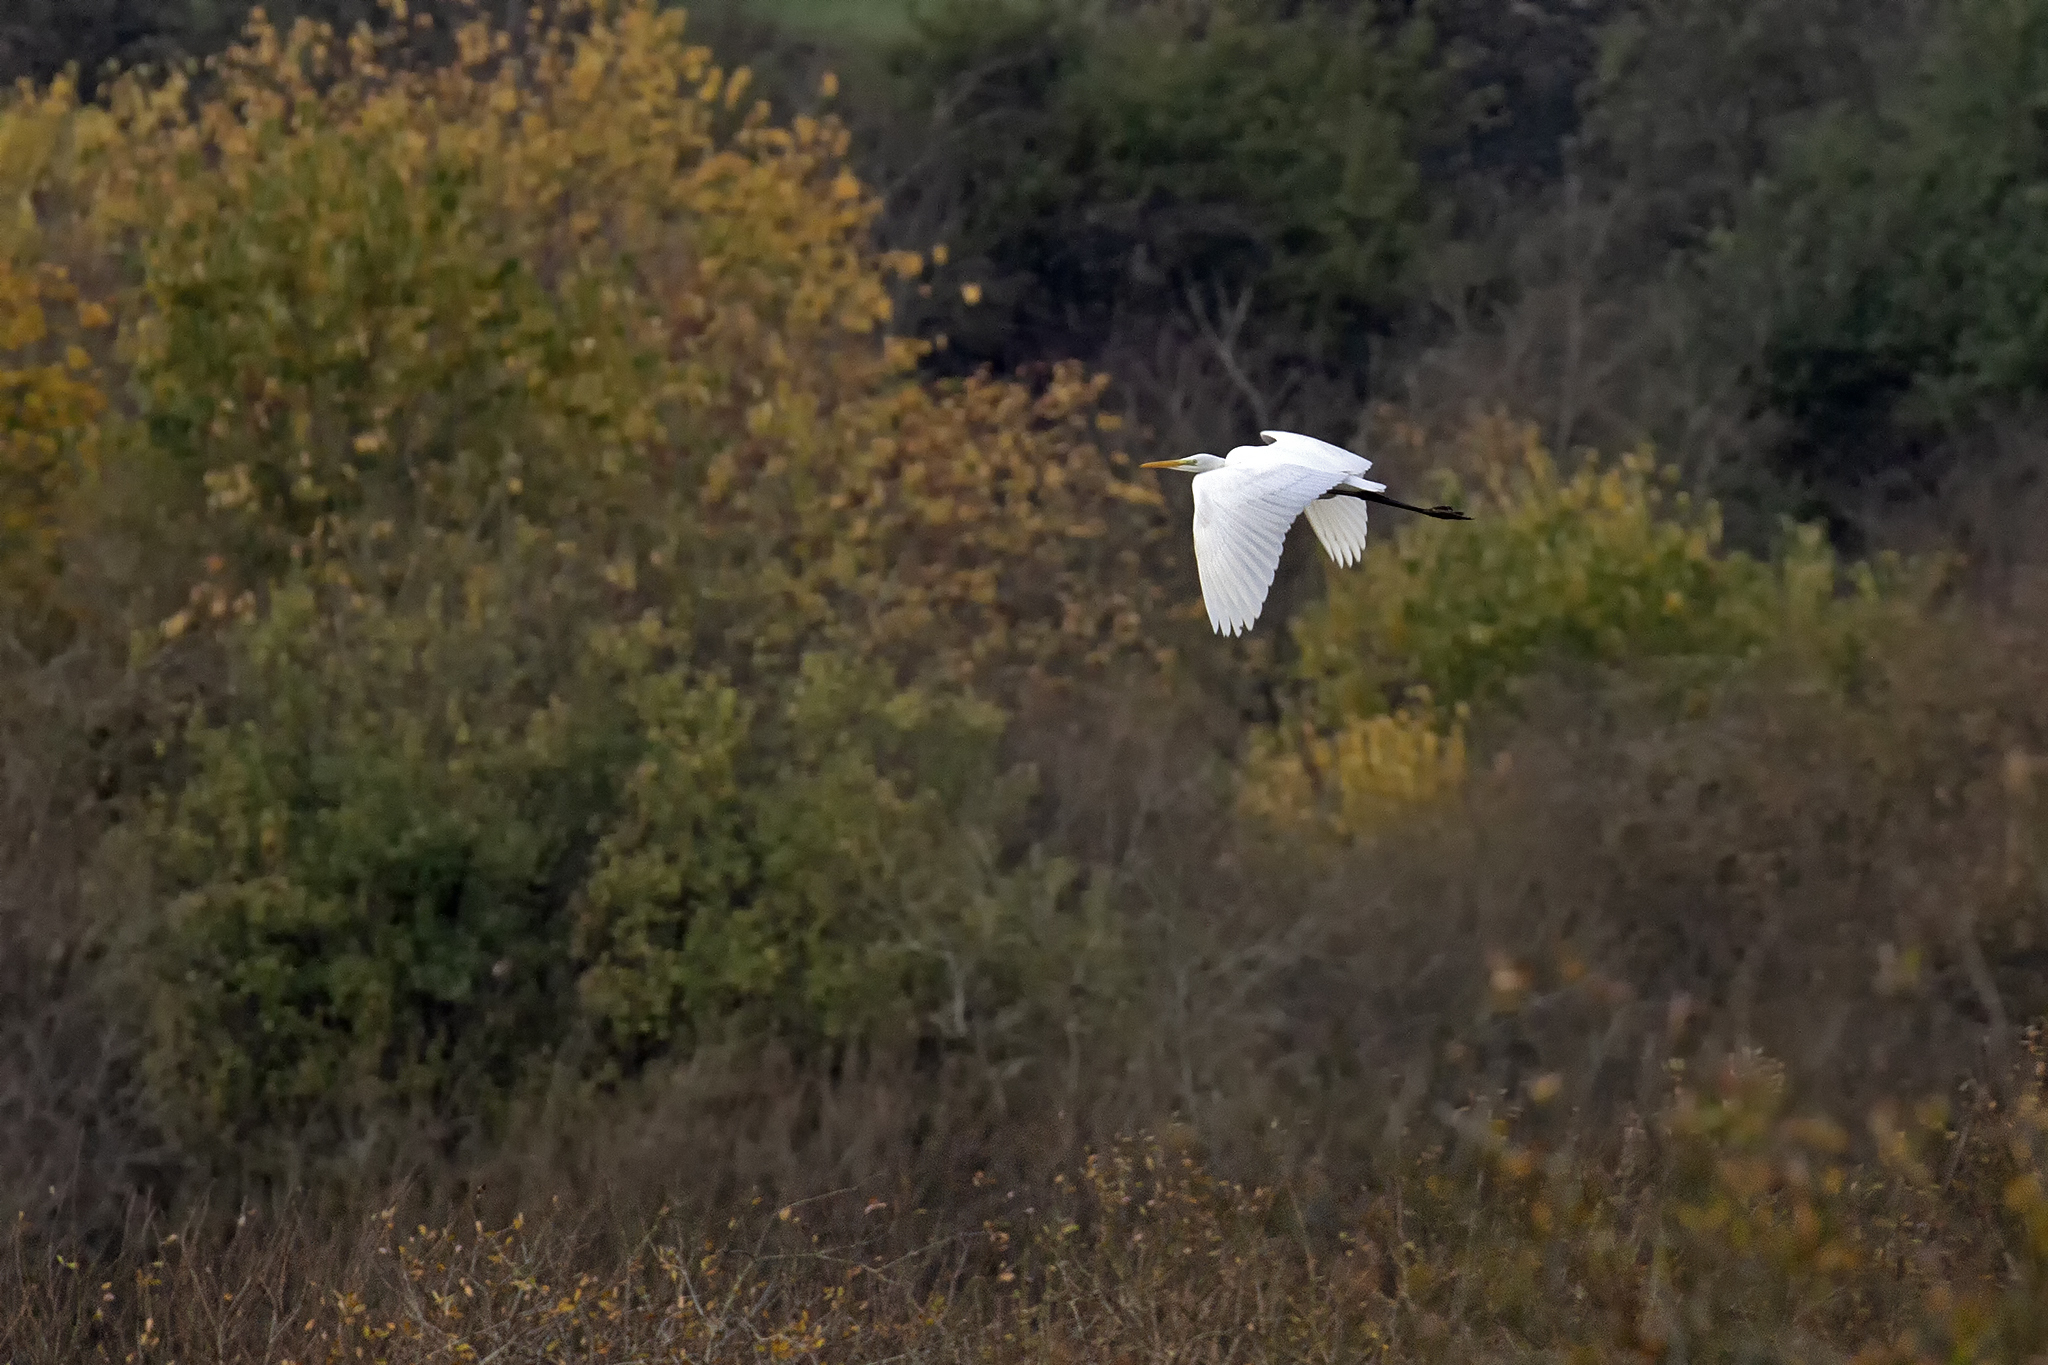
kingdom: Animalia
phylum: Chordata
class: Aves
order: Pelecaniformes
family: Ardeidae
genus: Ardea
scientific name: Ardea alba
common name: Great egret
